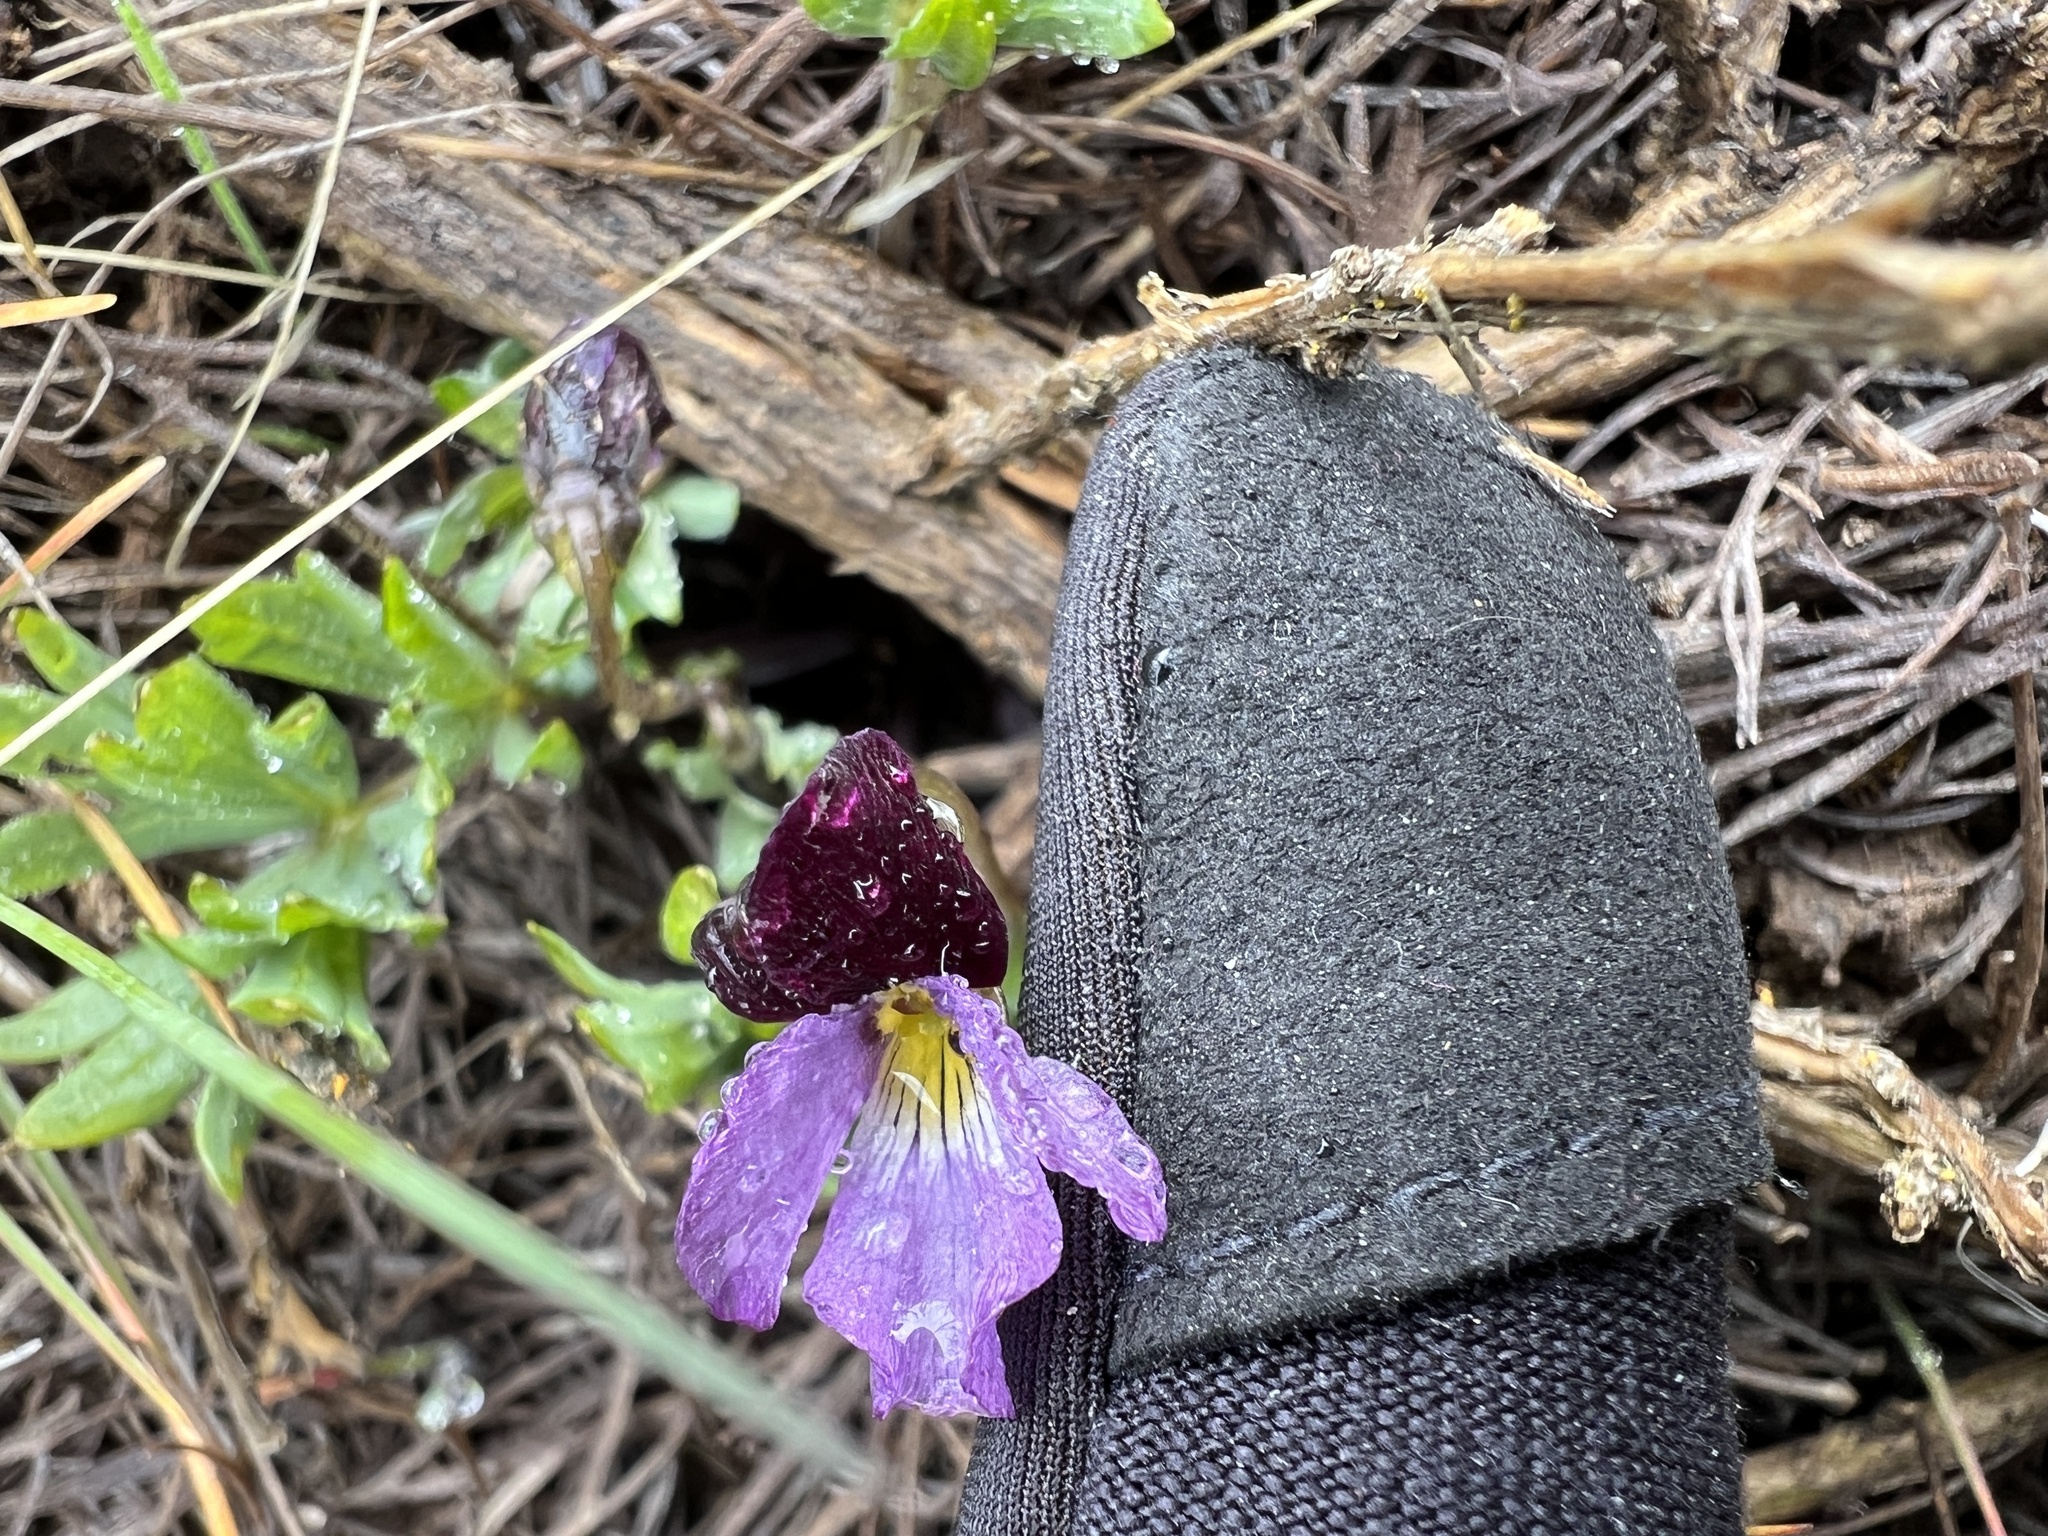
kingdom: Plantae
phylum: Tracheophyta
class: Magnoliopsida
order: Malpighiales
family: Violaceae
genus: Viola
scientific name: Viola trinervata
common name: Sagebrush violet
